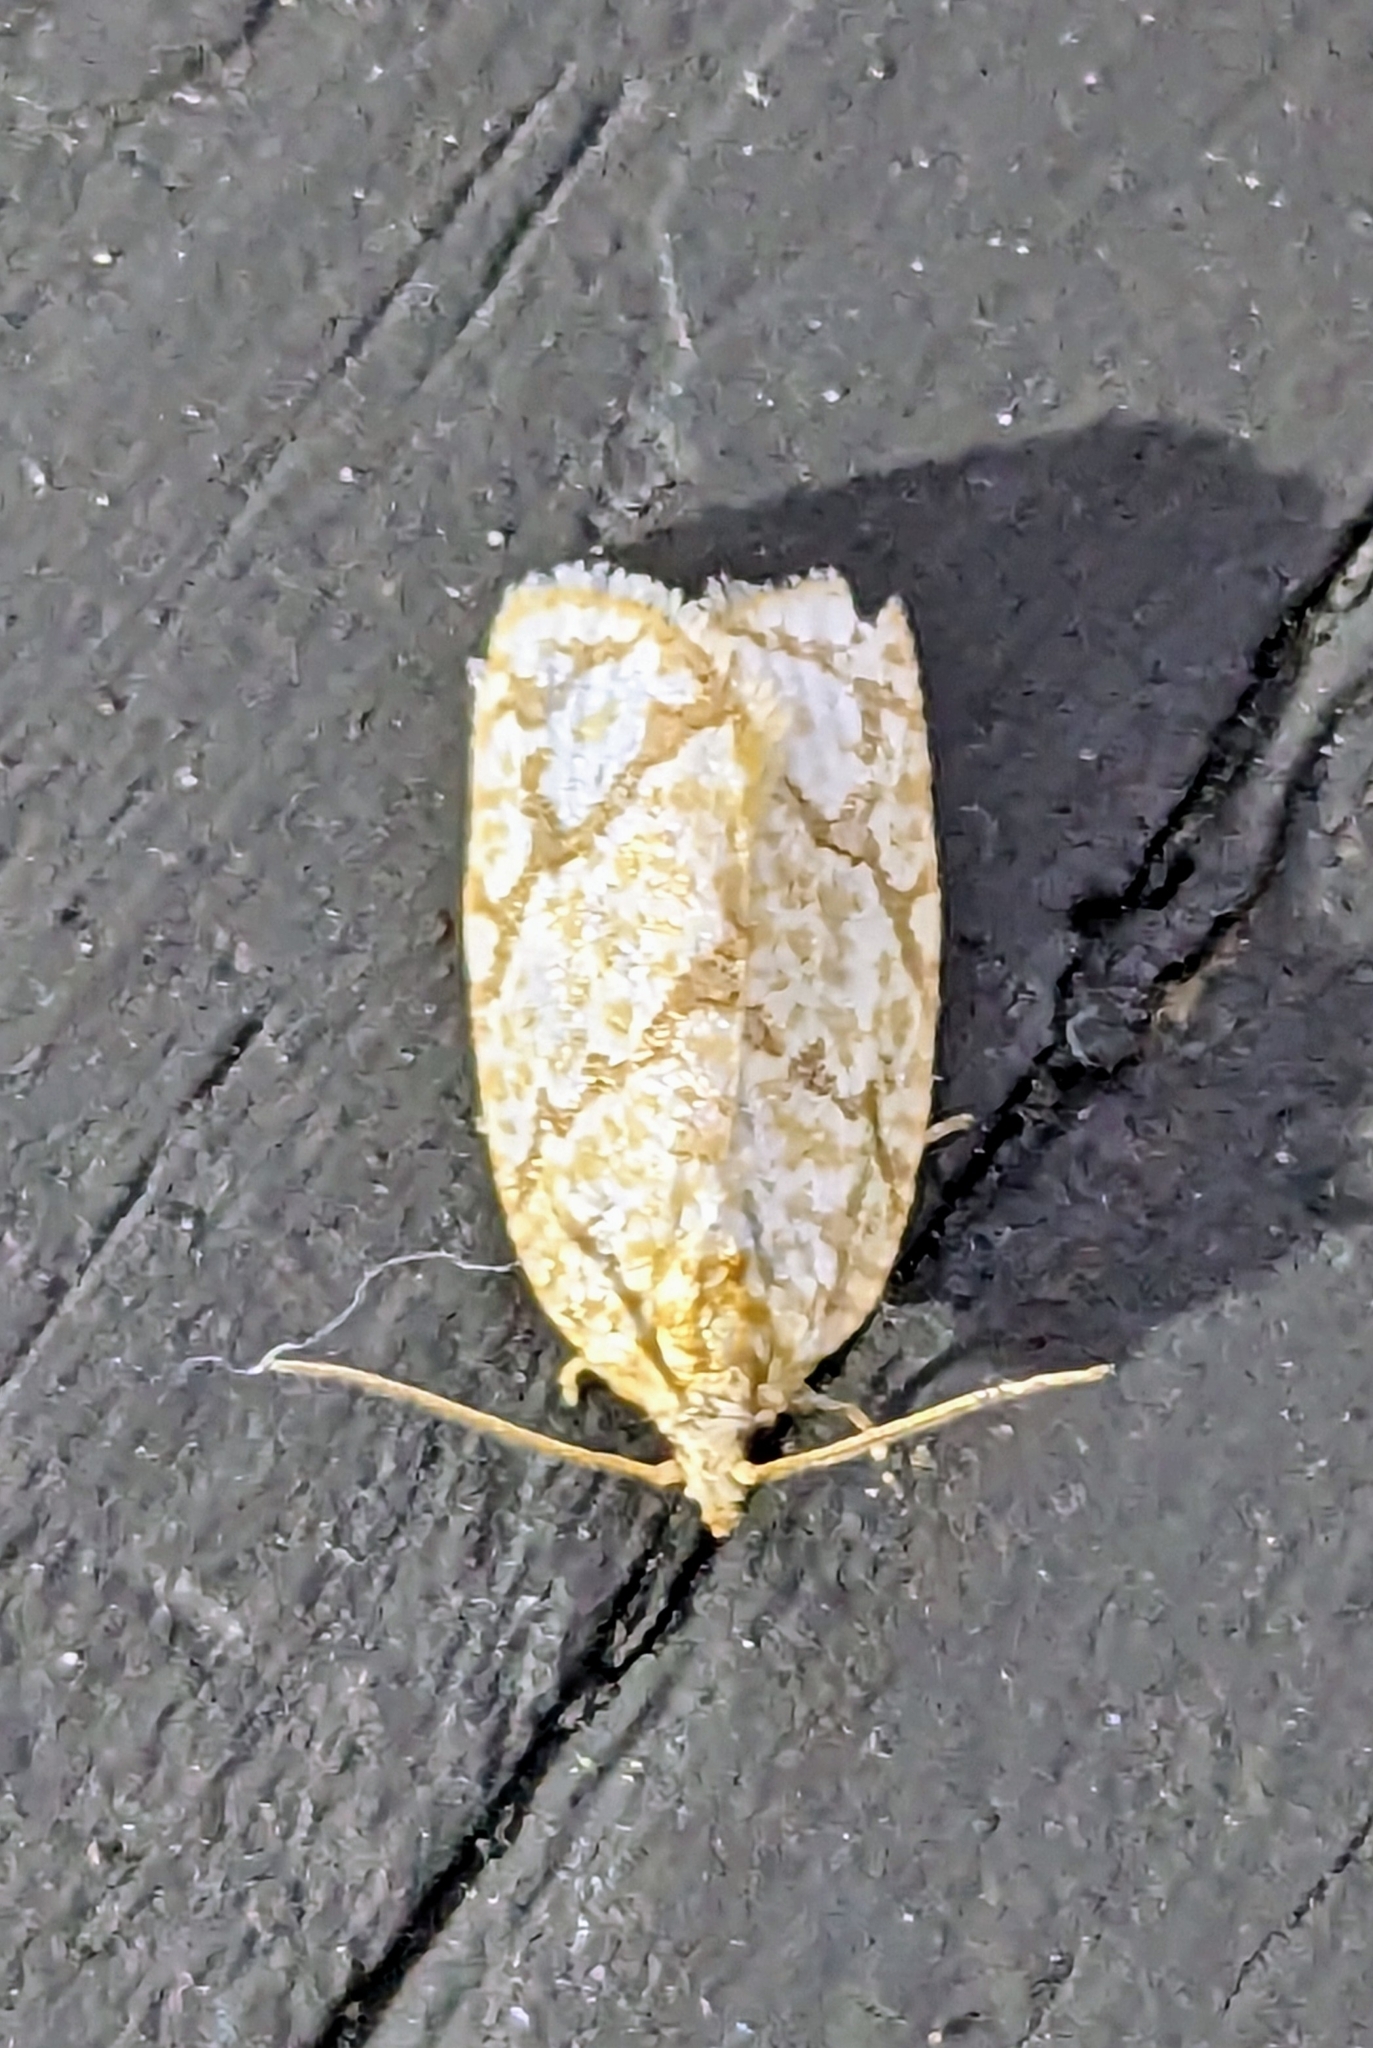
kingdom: Animalia
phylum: Arthropoda
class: Insecta
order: Lepidoptera
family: Tortricidae
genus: Argyrotaenia
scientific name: Argyrotaenia quercifoliana
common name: Yellow-winged oak leafroller moth
